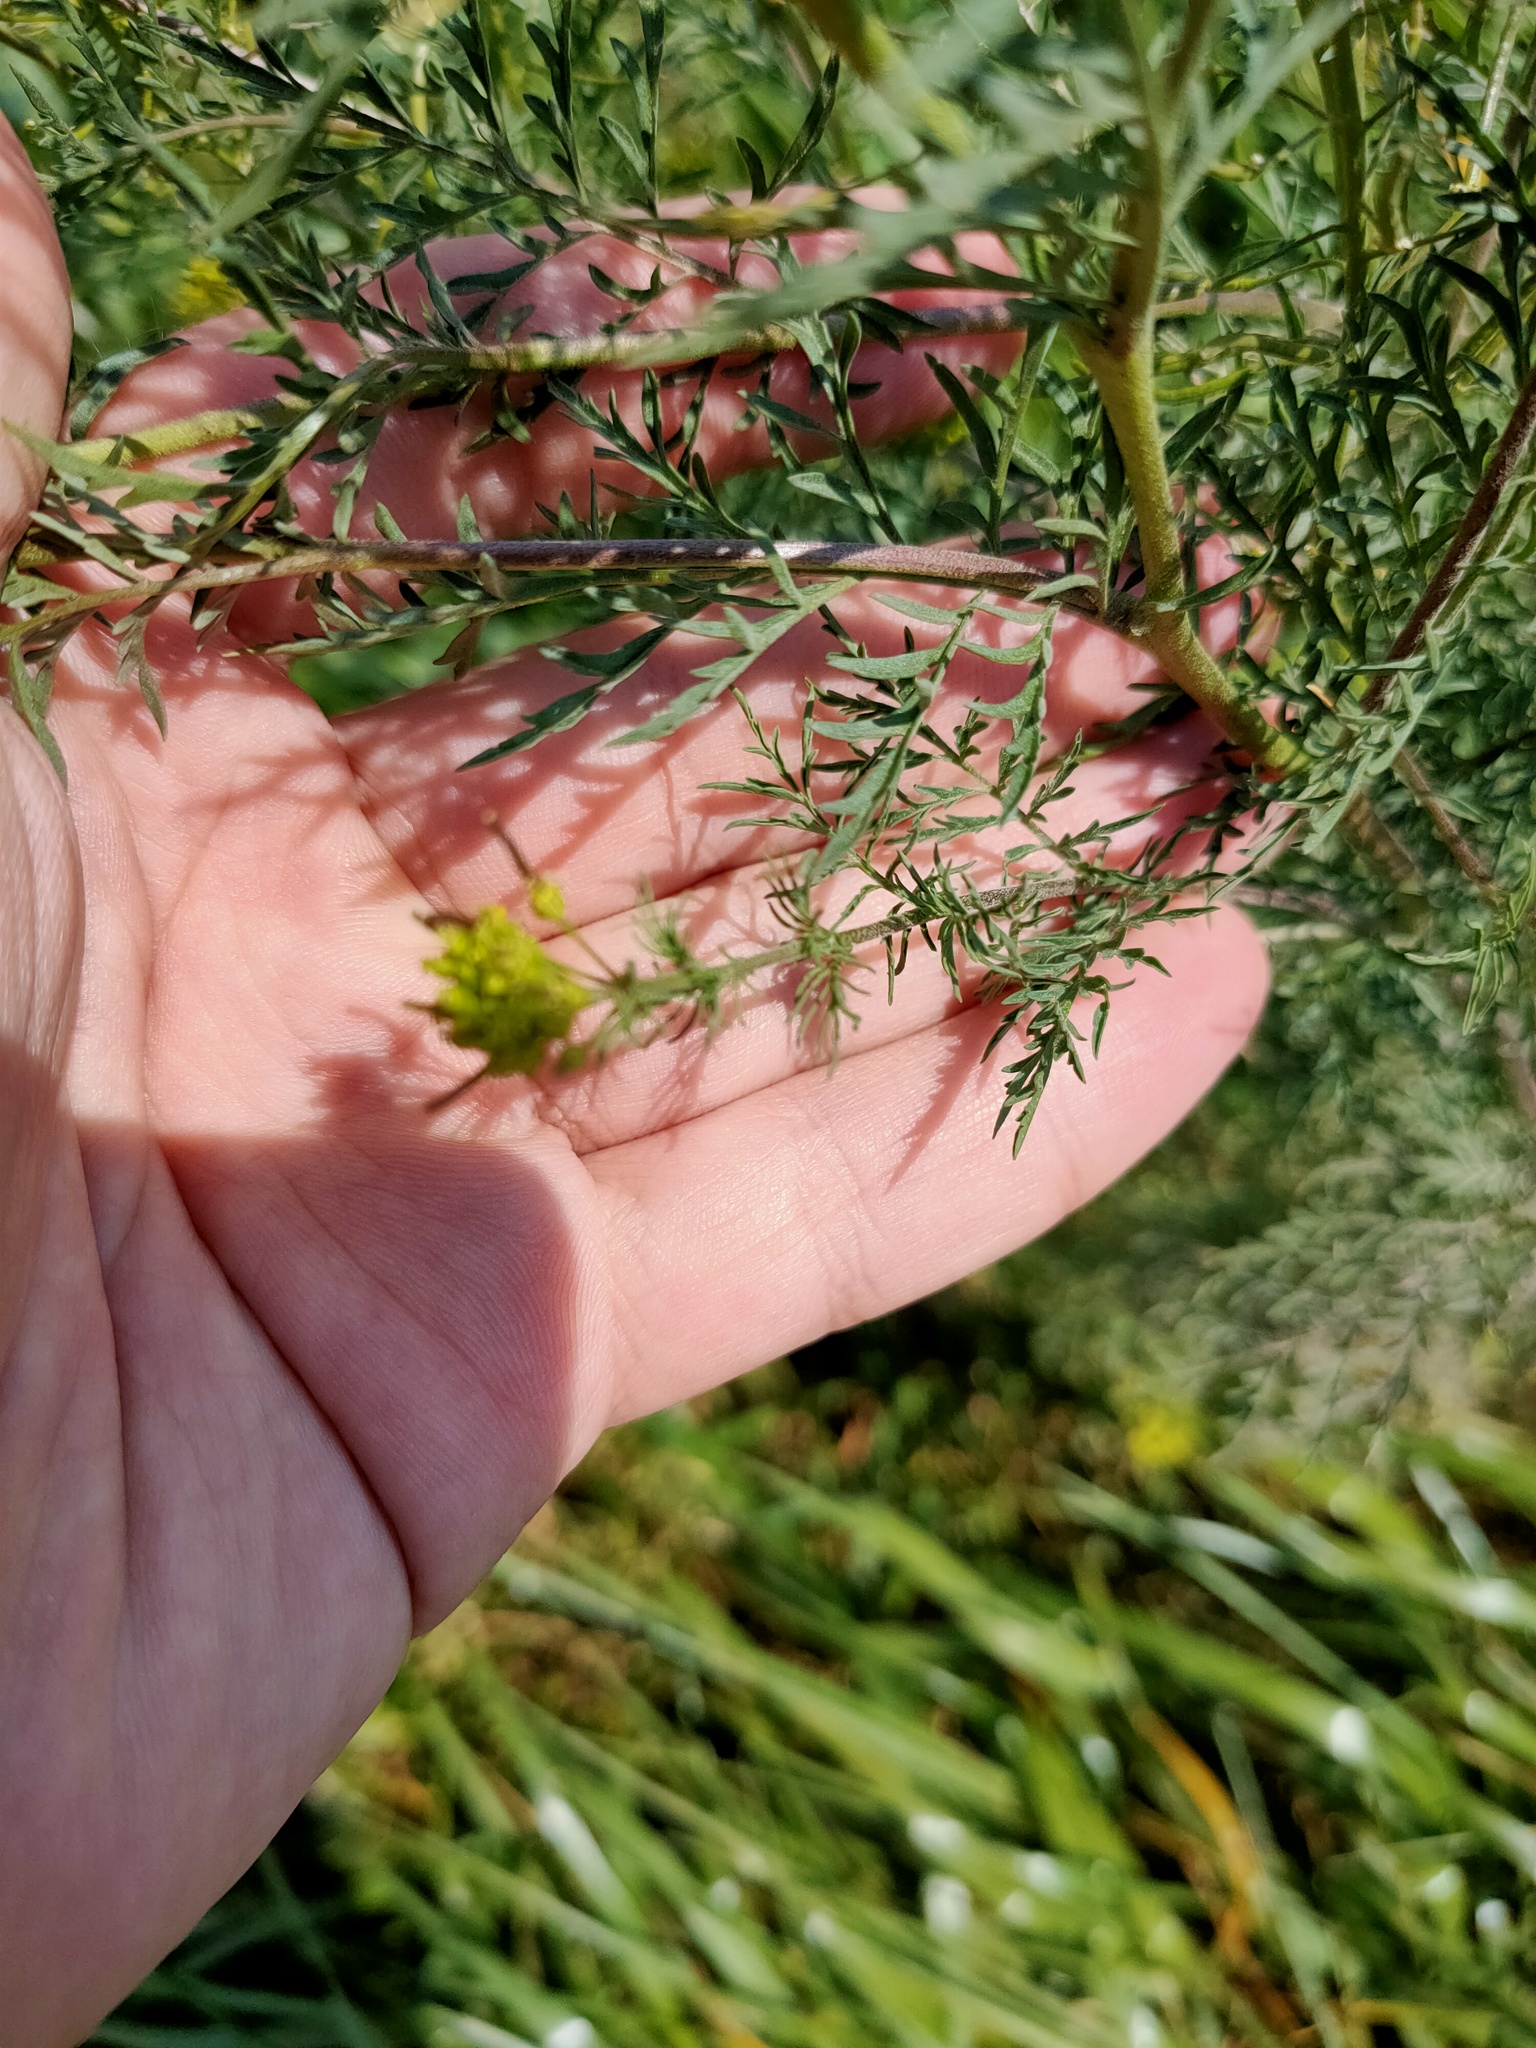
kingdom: Plantae
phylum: Tracheophyta
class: Magnoliopsida
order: Brassicales
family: Brassicaceae
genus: Descurainia
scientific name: Descurainia sophia
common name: Flixweed
